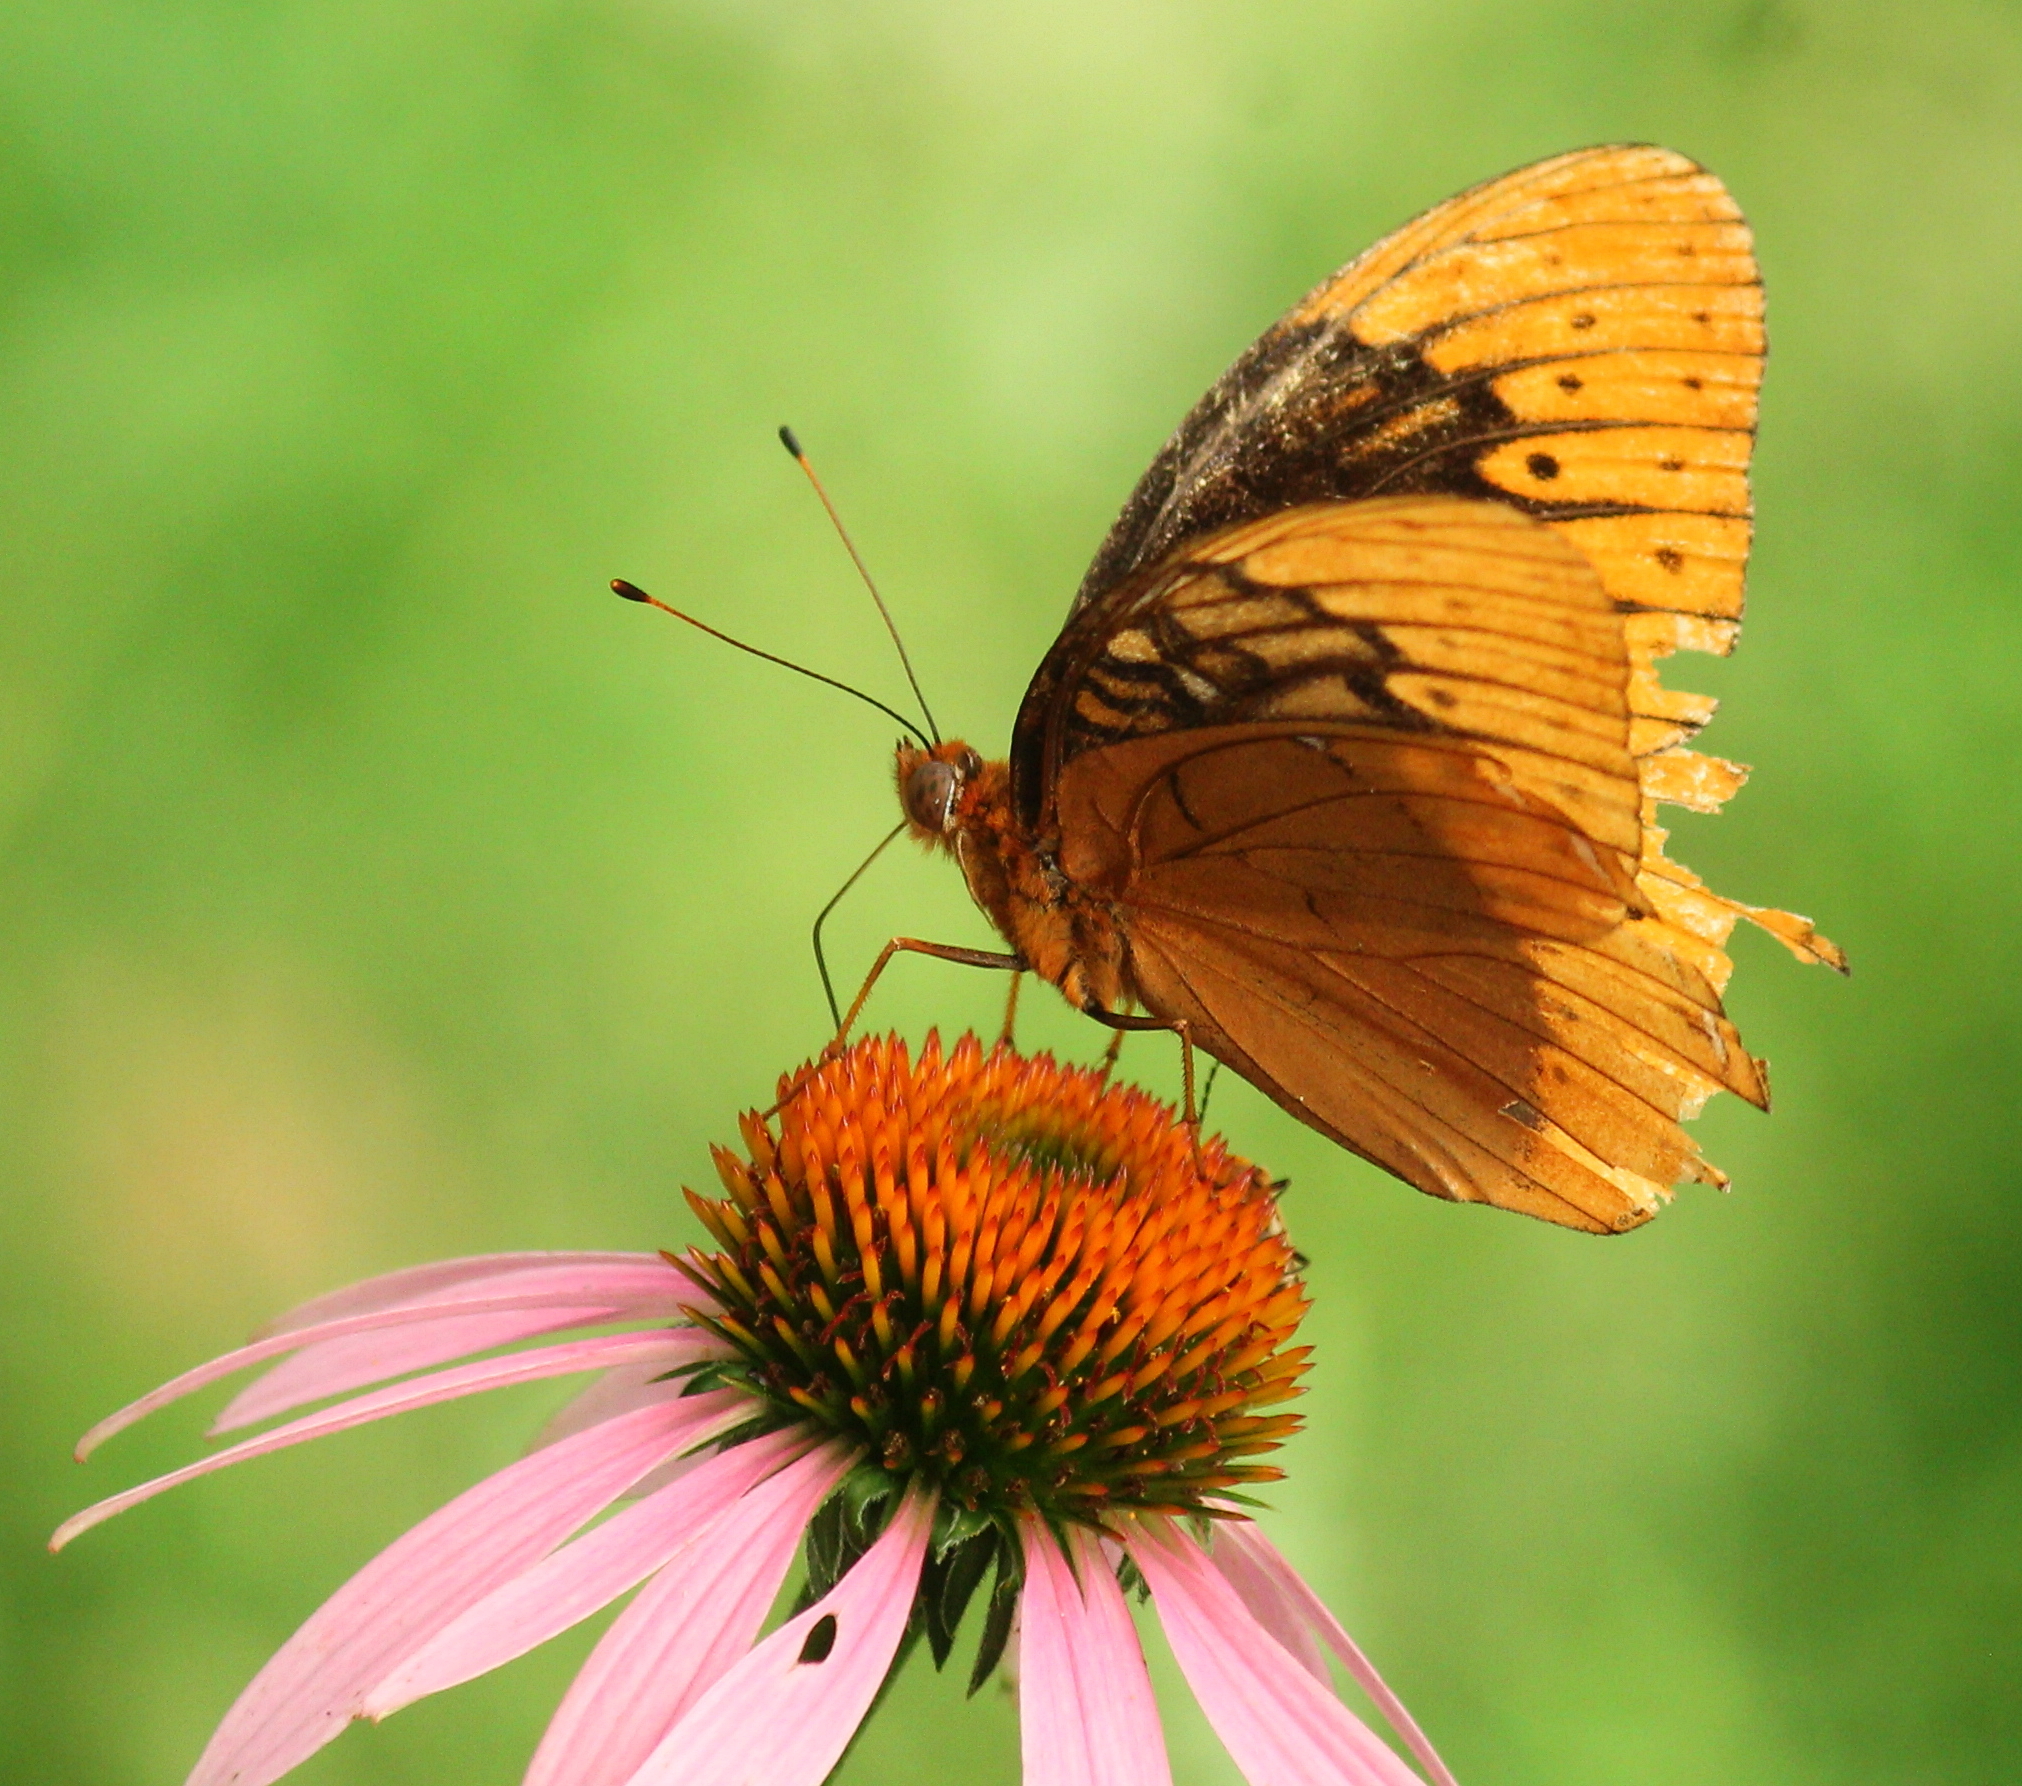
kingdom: Animalia
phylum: Arthropoda
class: Insecta
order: Lepidoptera
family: Nymphalidae
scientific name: Nymphalidae
